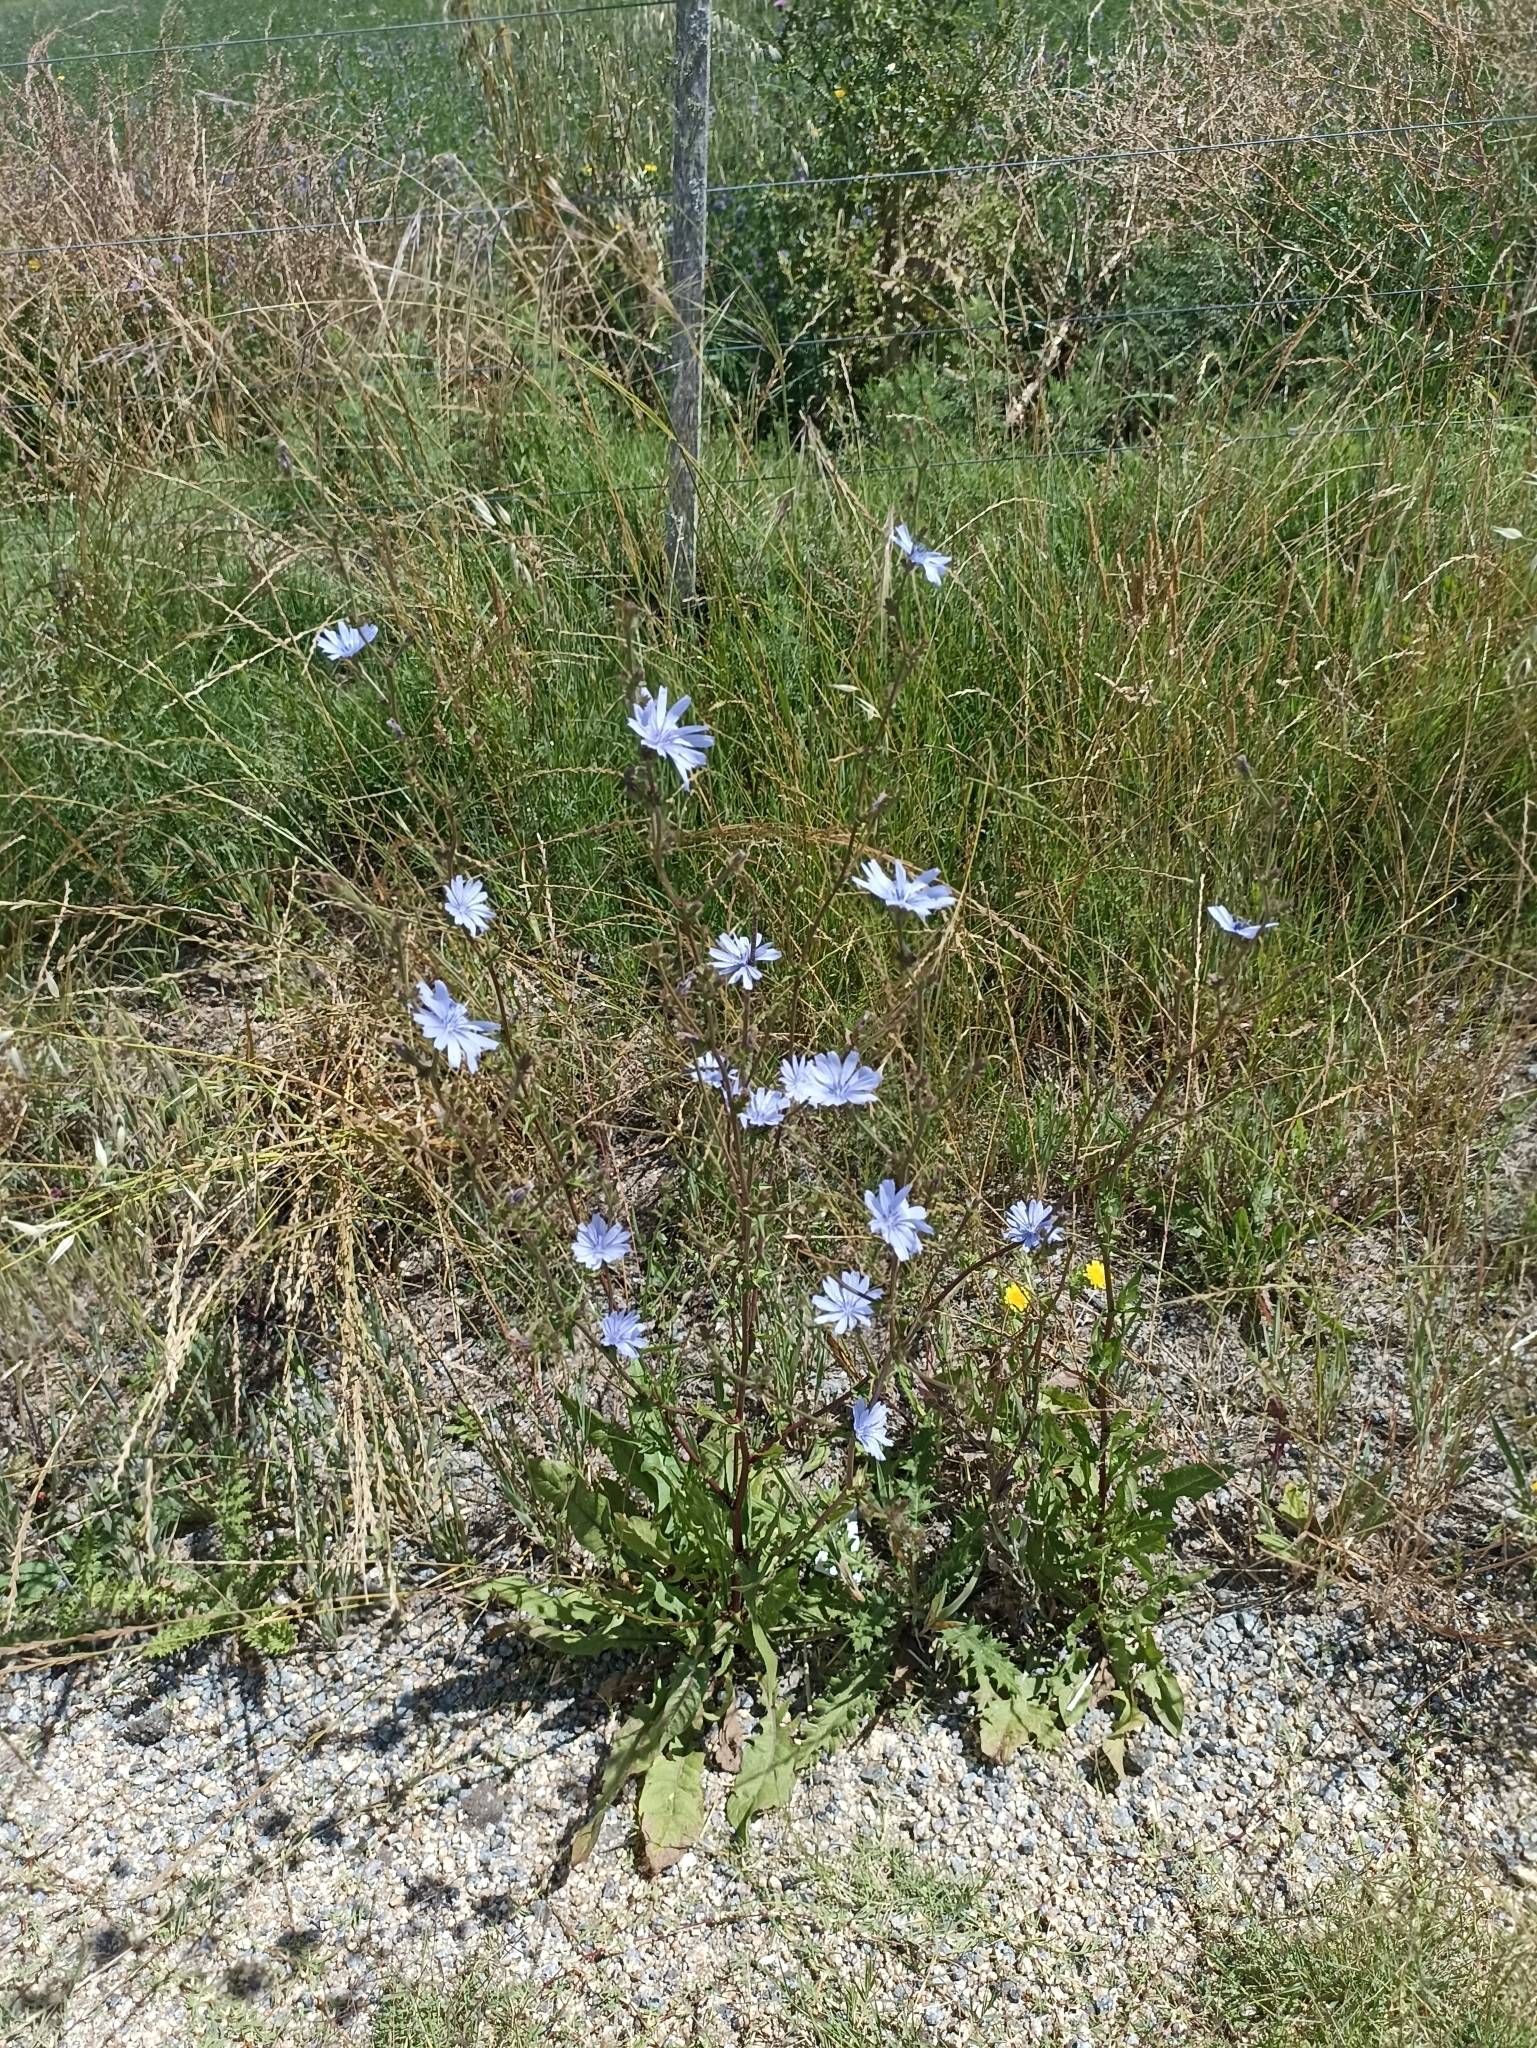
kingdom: Plantae
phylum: Tracheophyta
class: Magnoliopsida
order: Asterales
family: Asteraceae
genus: Cichorium
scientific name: Cichorium intybus
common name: Chicory
